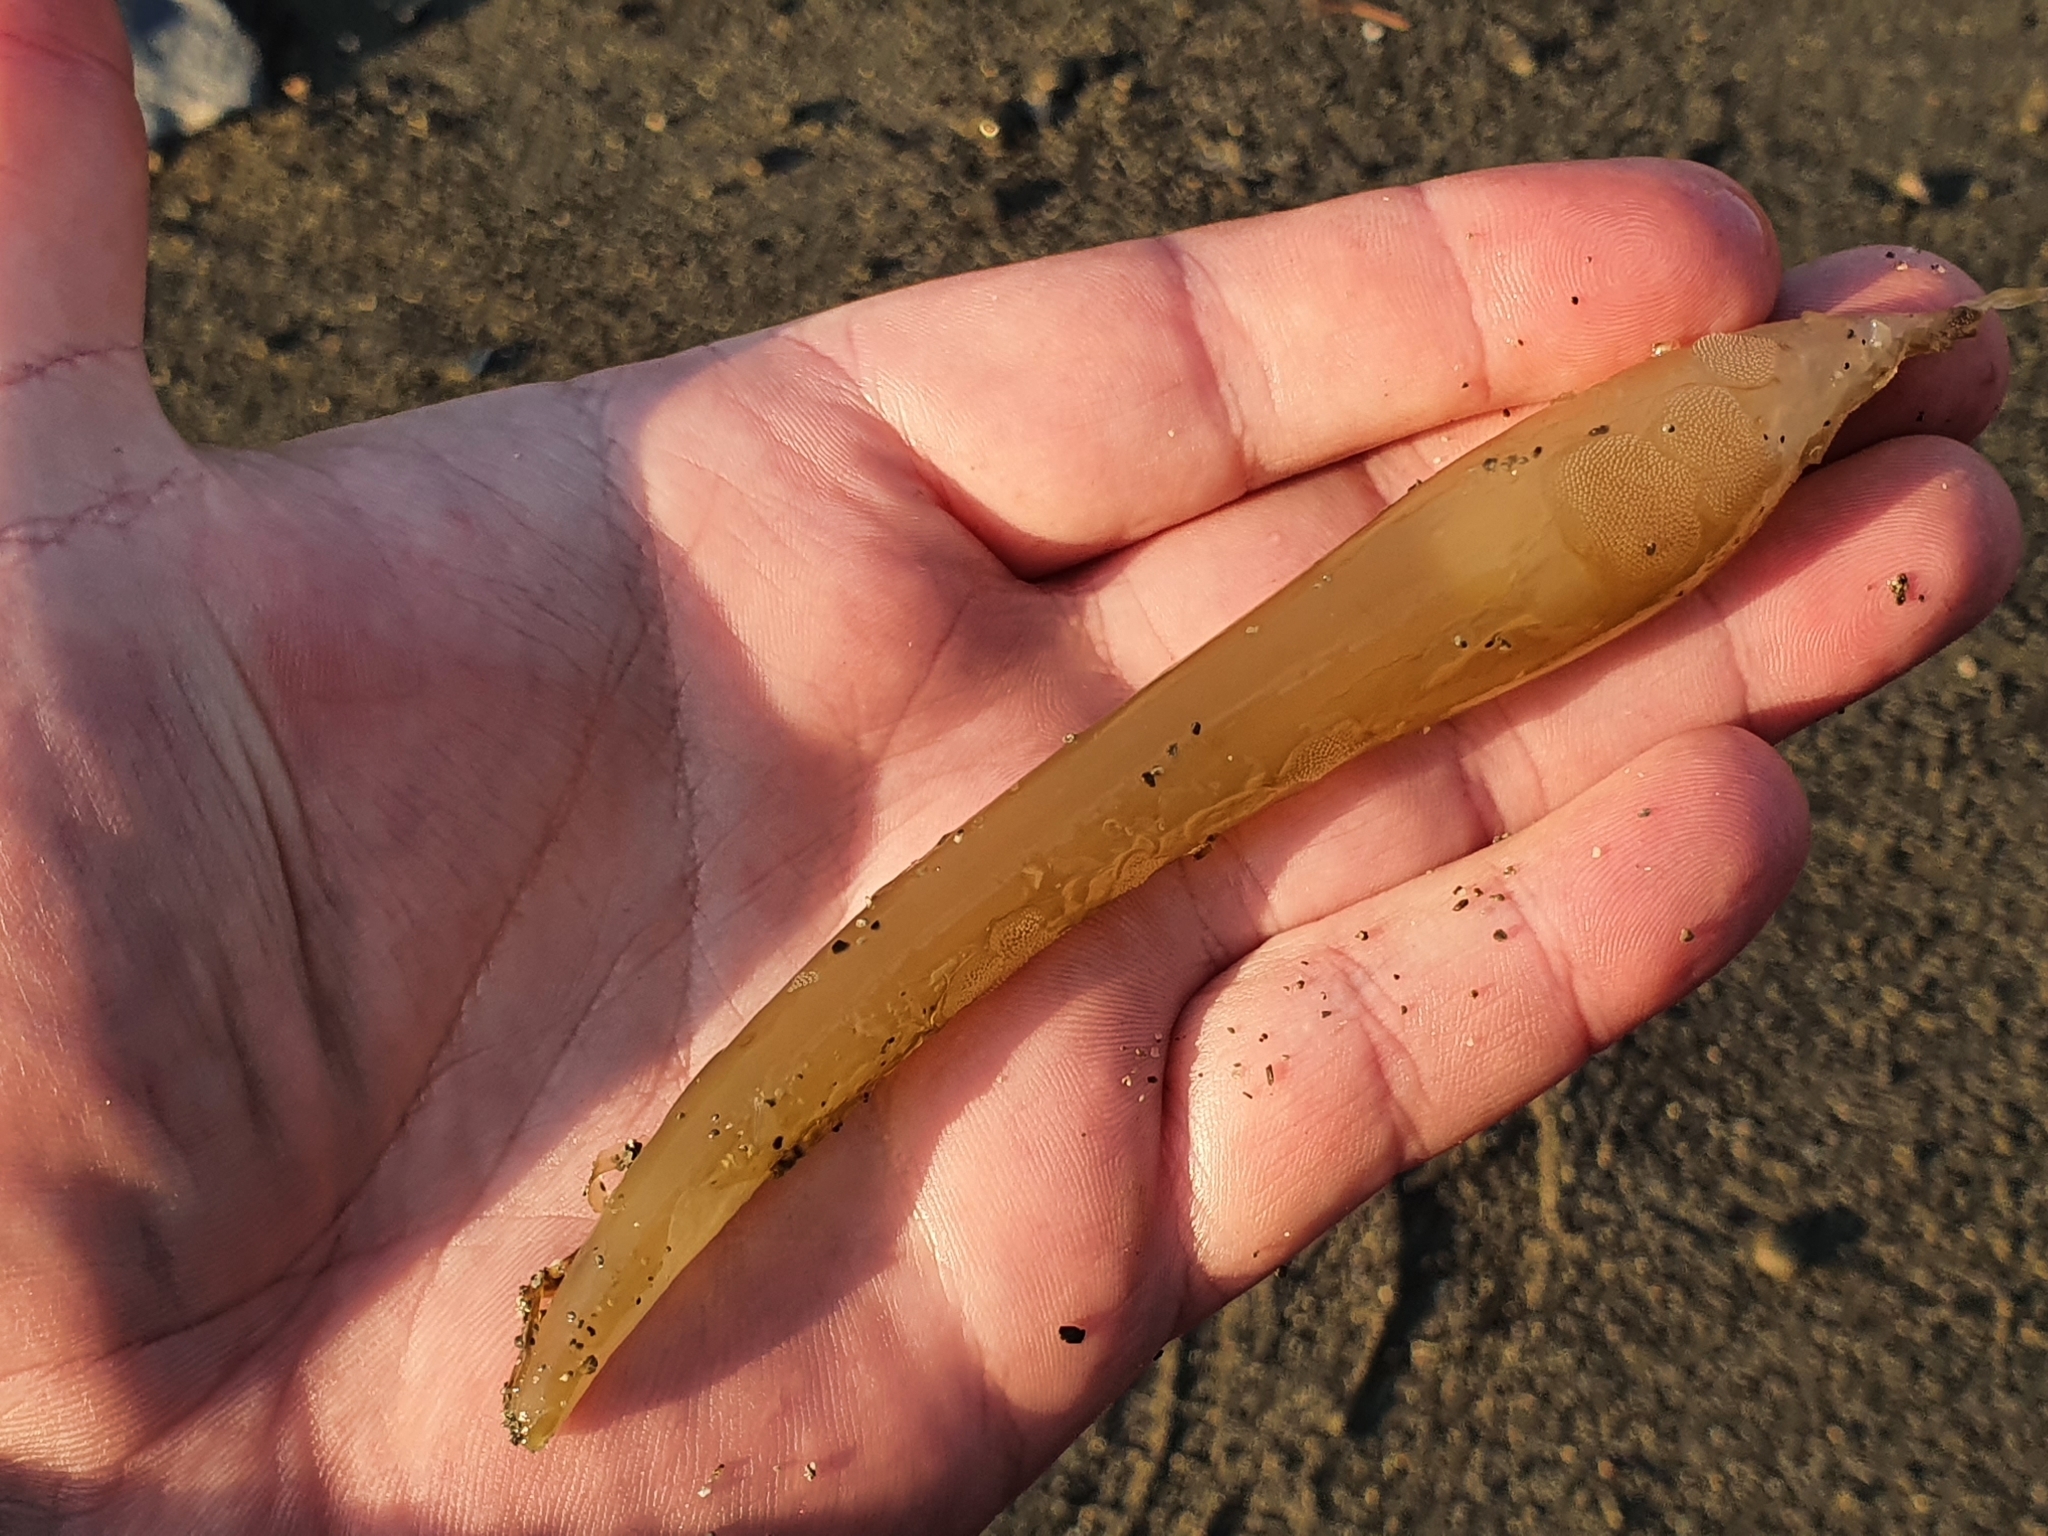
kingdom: Chromista
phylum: Ochrophyta
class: Phaeophyceae
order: Laminariales
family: Laminariaceae
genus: Macrocystis
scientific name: Macrocystis pyrifera
